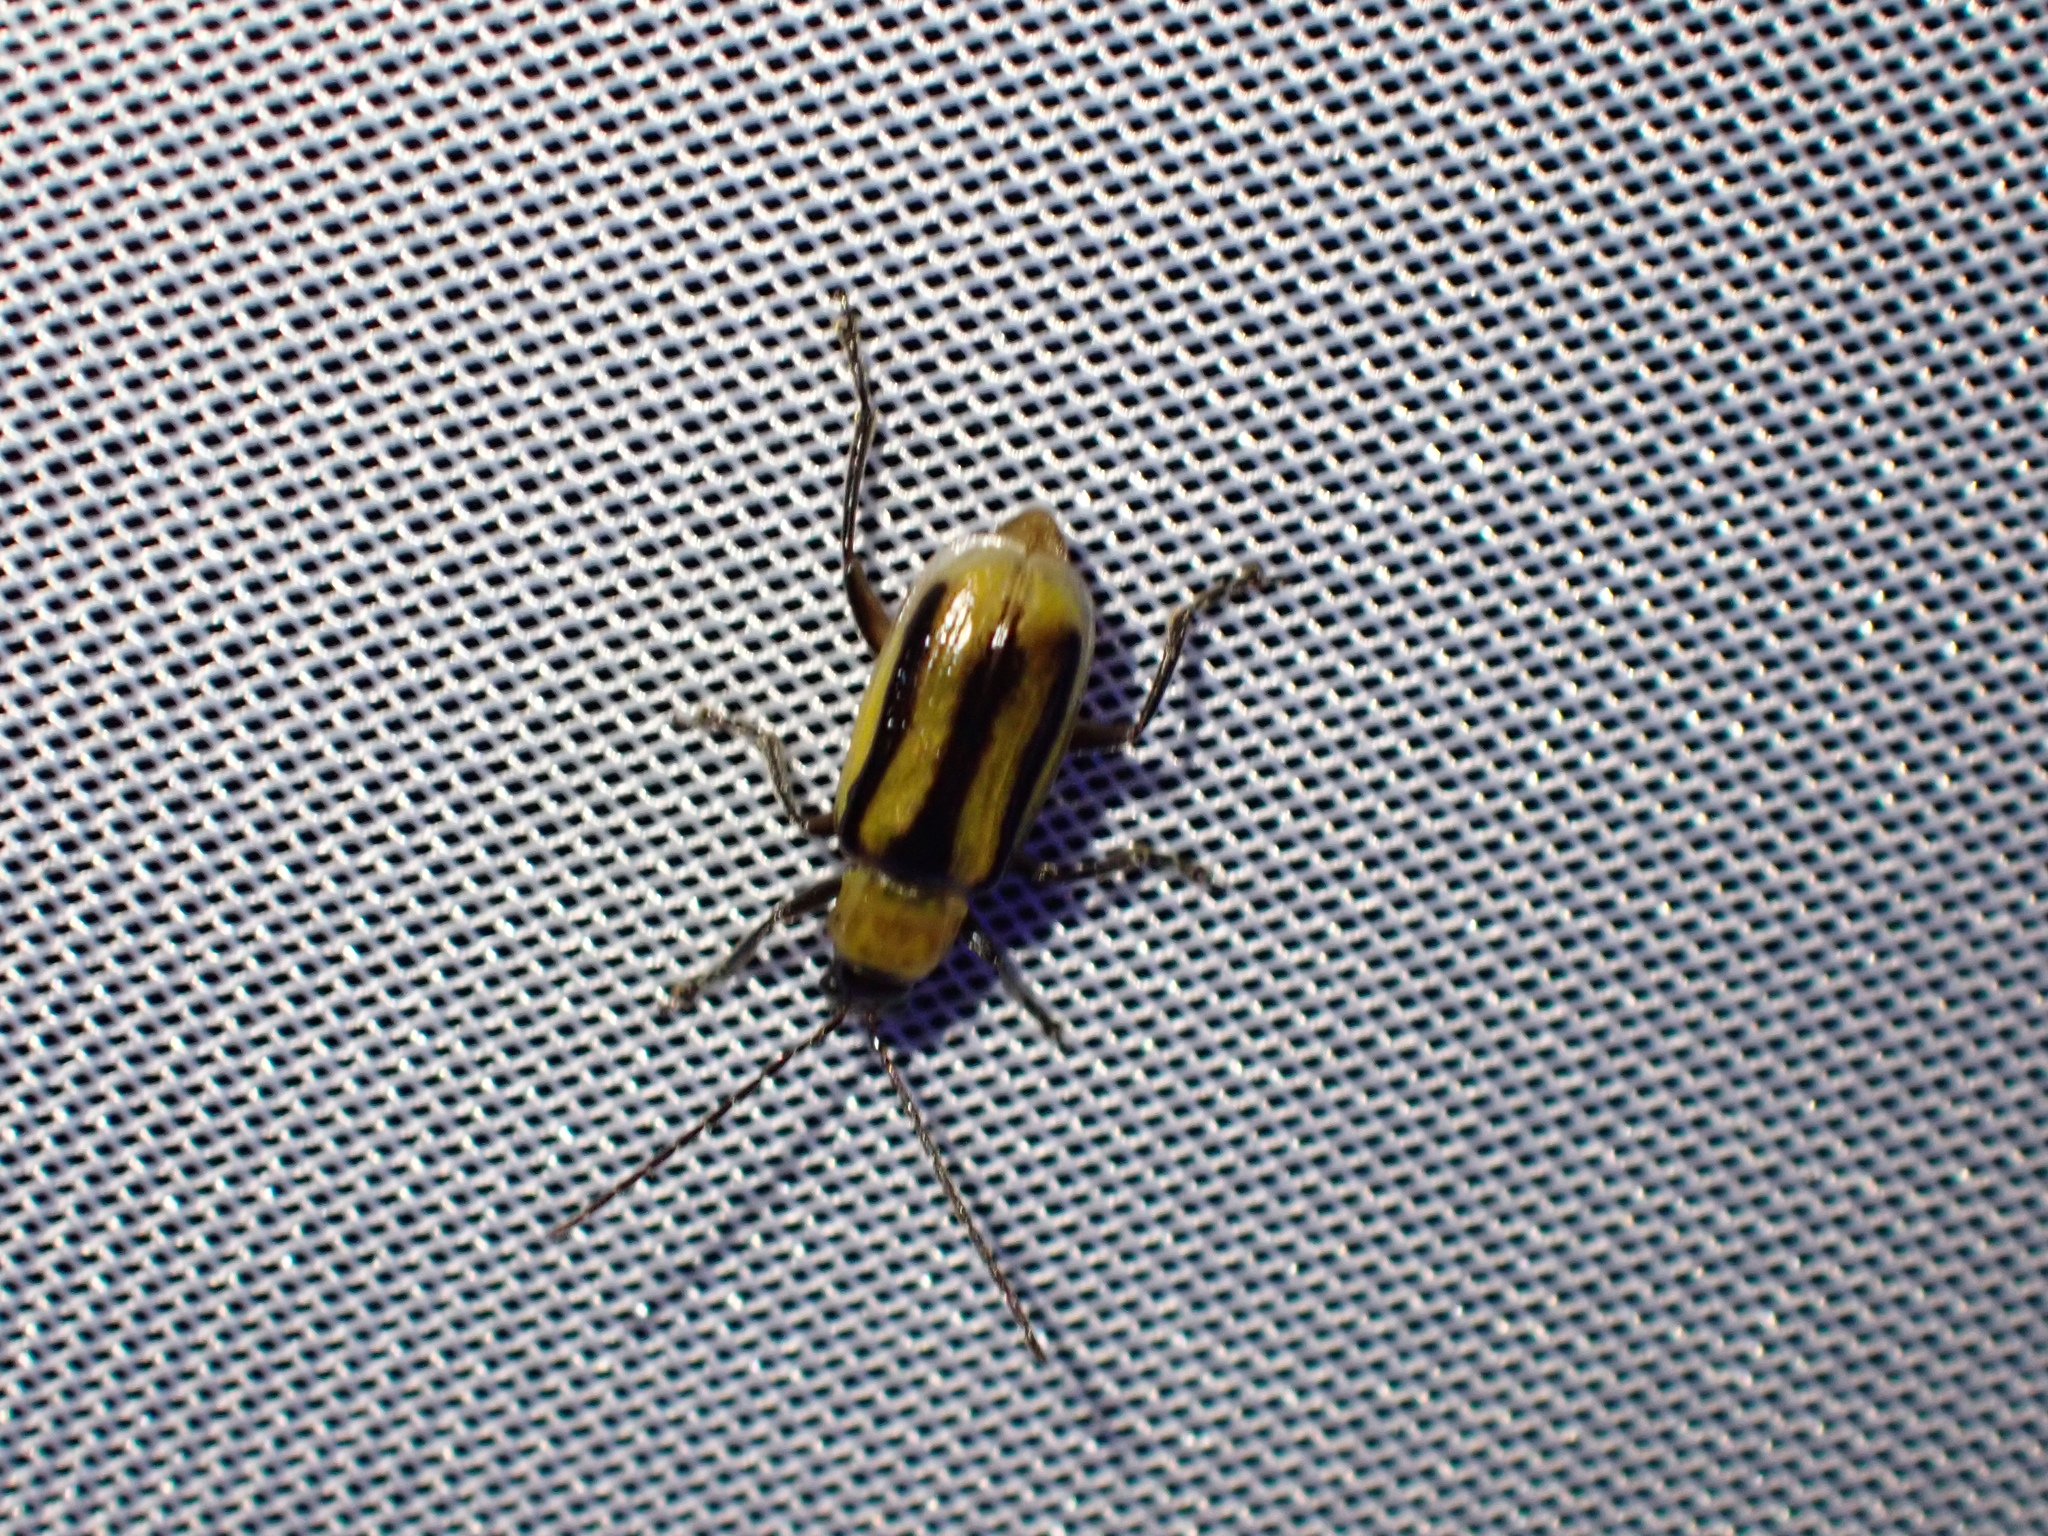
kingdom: Animalia
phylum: Arthropoda
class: Insecta
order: Coleoptera
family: Chrysomelidae
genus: Diabrotica
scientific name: Diabrotica virgifera
